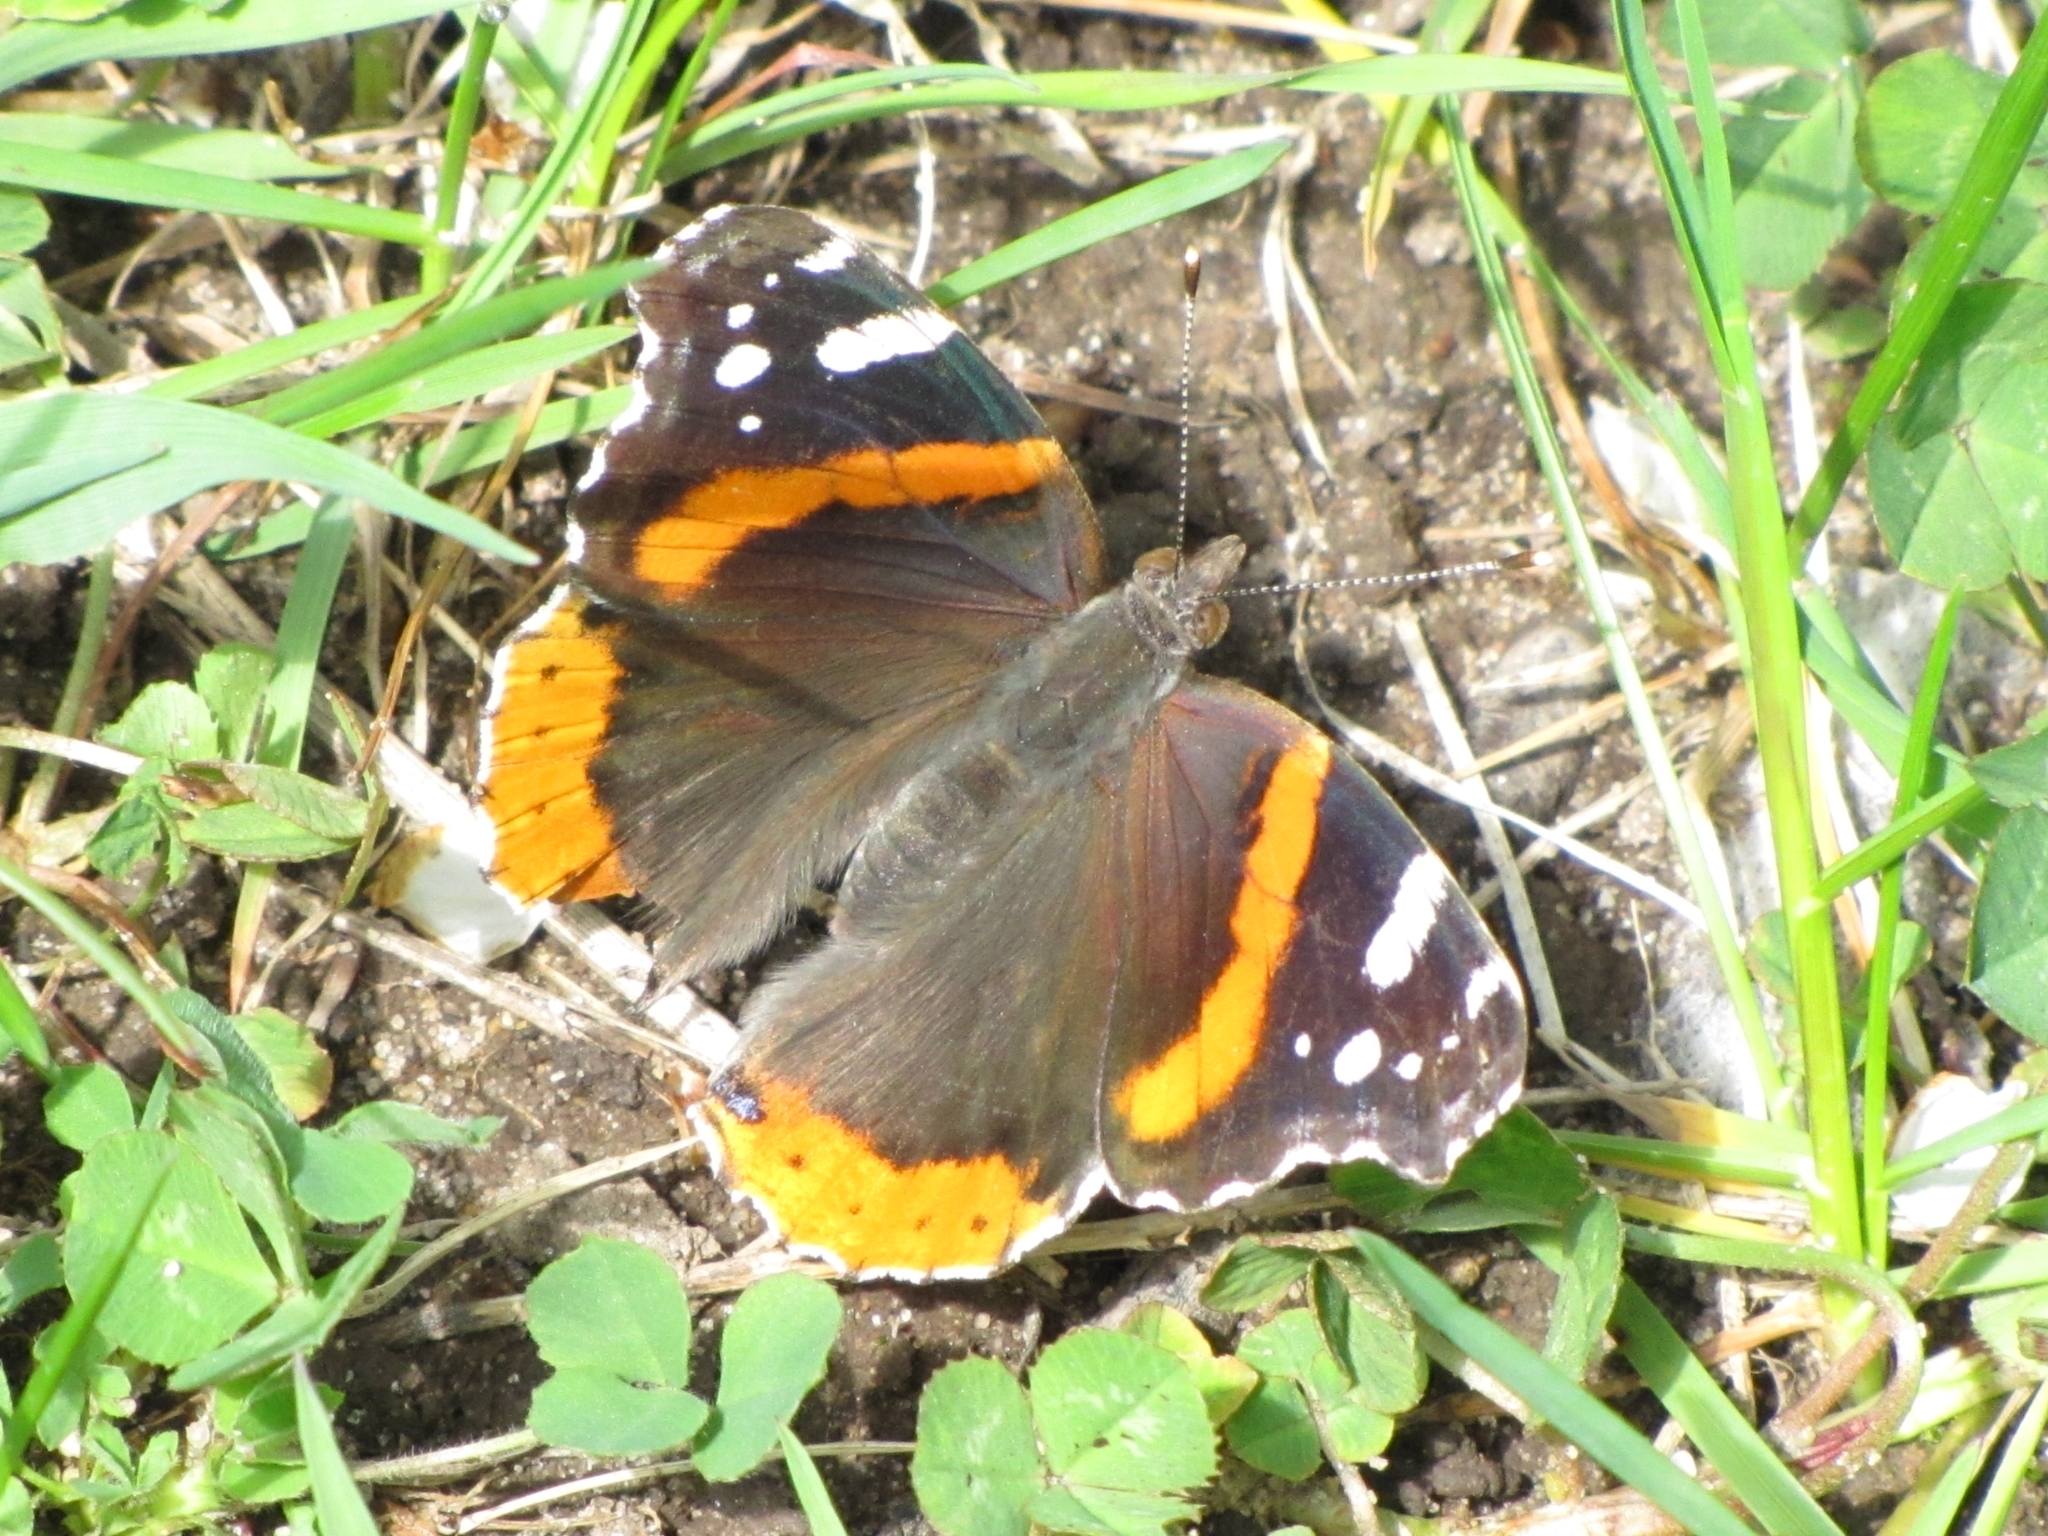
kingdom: Animalia
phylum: Arthropoda
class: Insecta
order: Lepidoptera
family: Nymphalidae
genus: Vanessa
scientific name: Vanessa atalanta
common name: Red admiral
